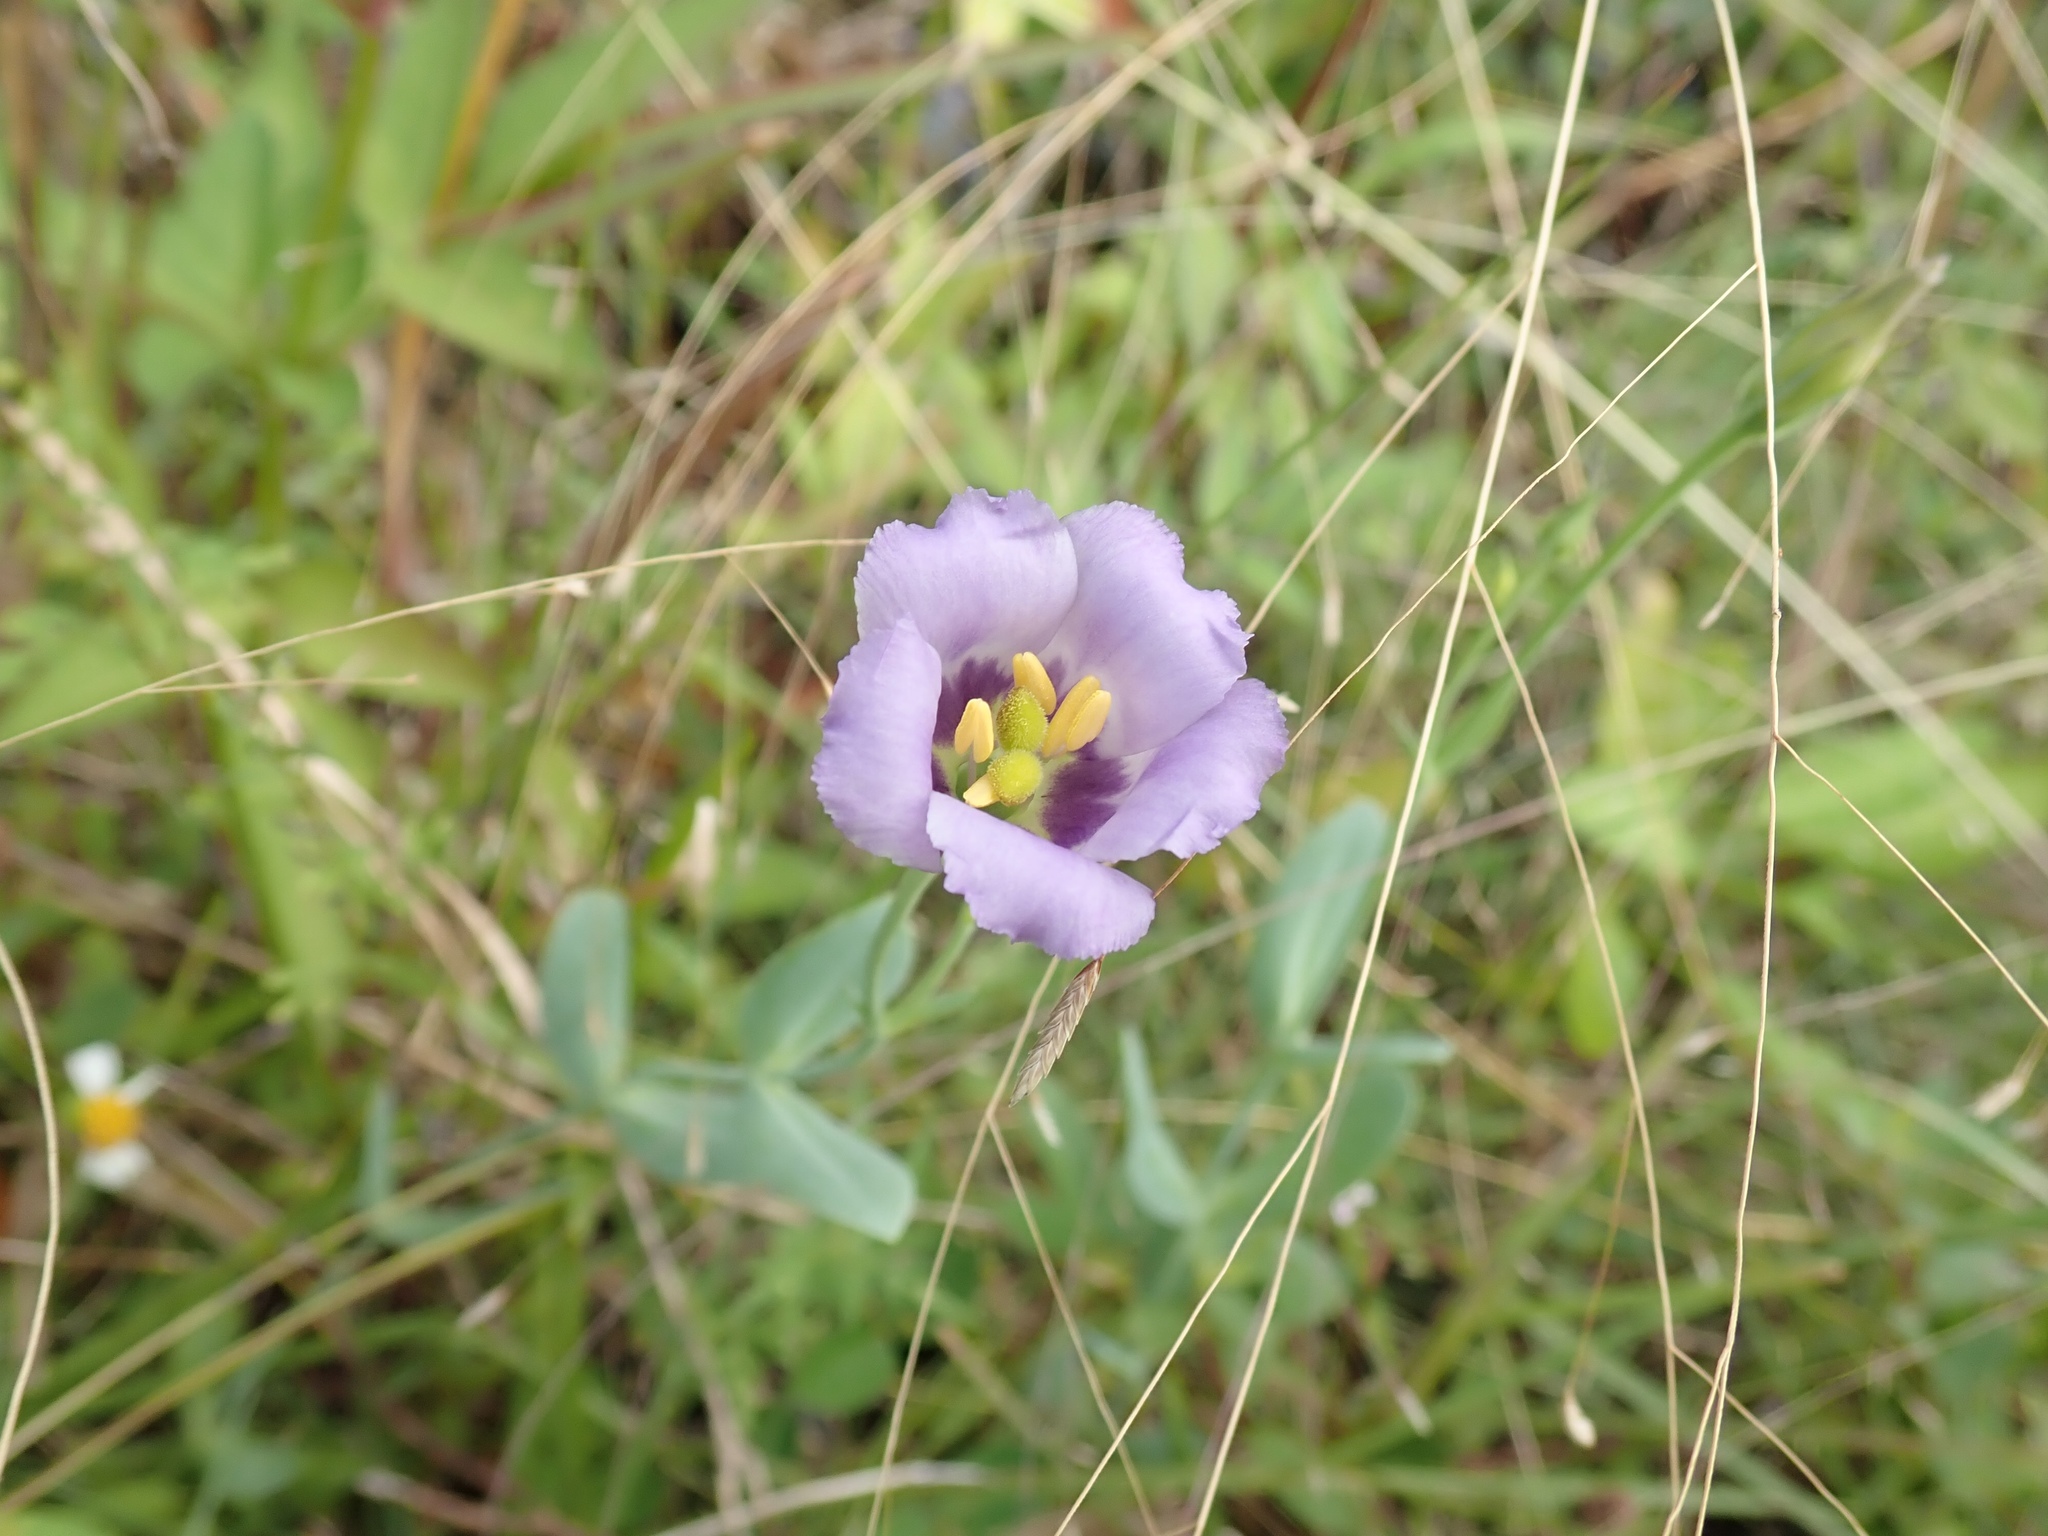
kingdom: Plantae
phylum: Tracheophyta
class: Magnoliopsida
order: Gentianales
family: Gentianaceae
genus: Eustoma
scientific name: Eustoma exaltatum
